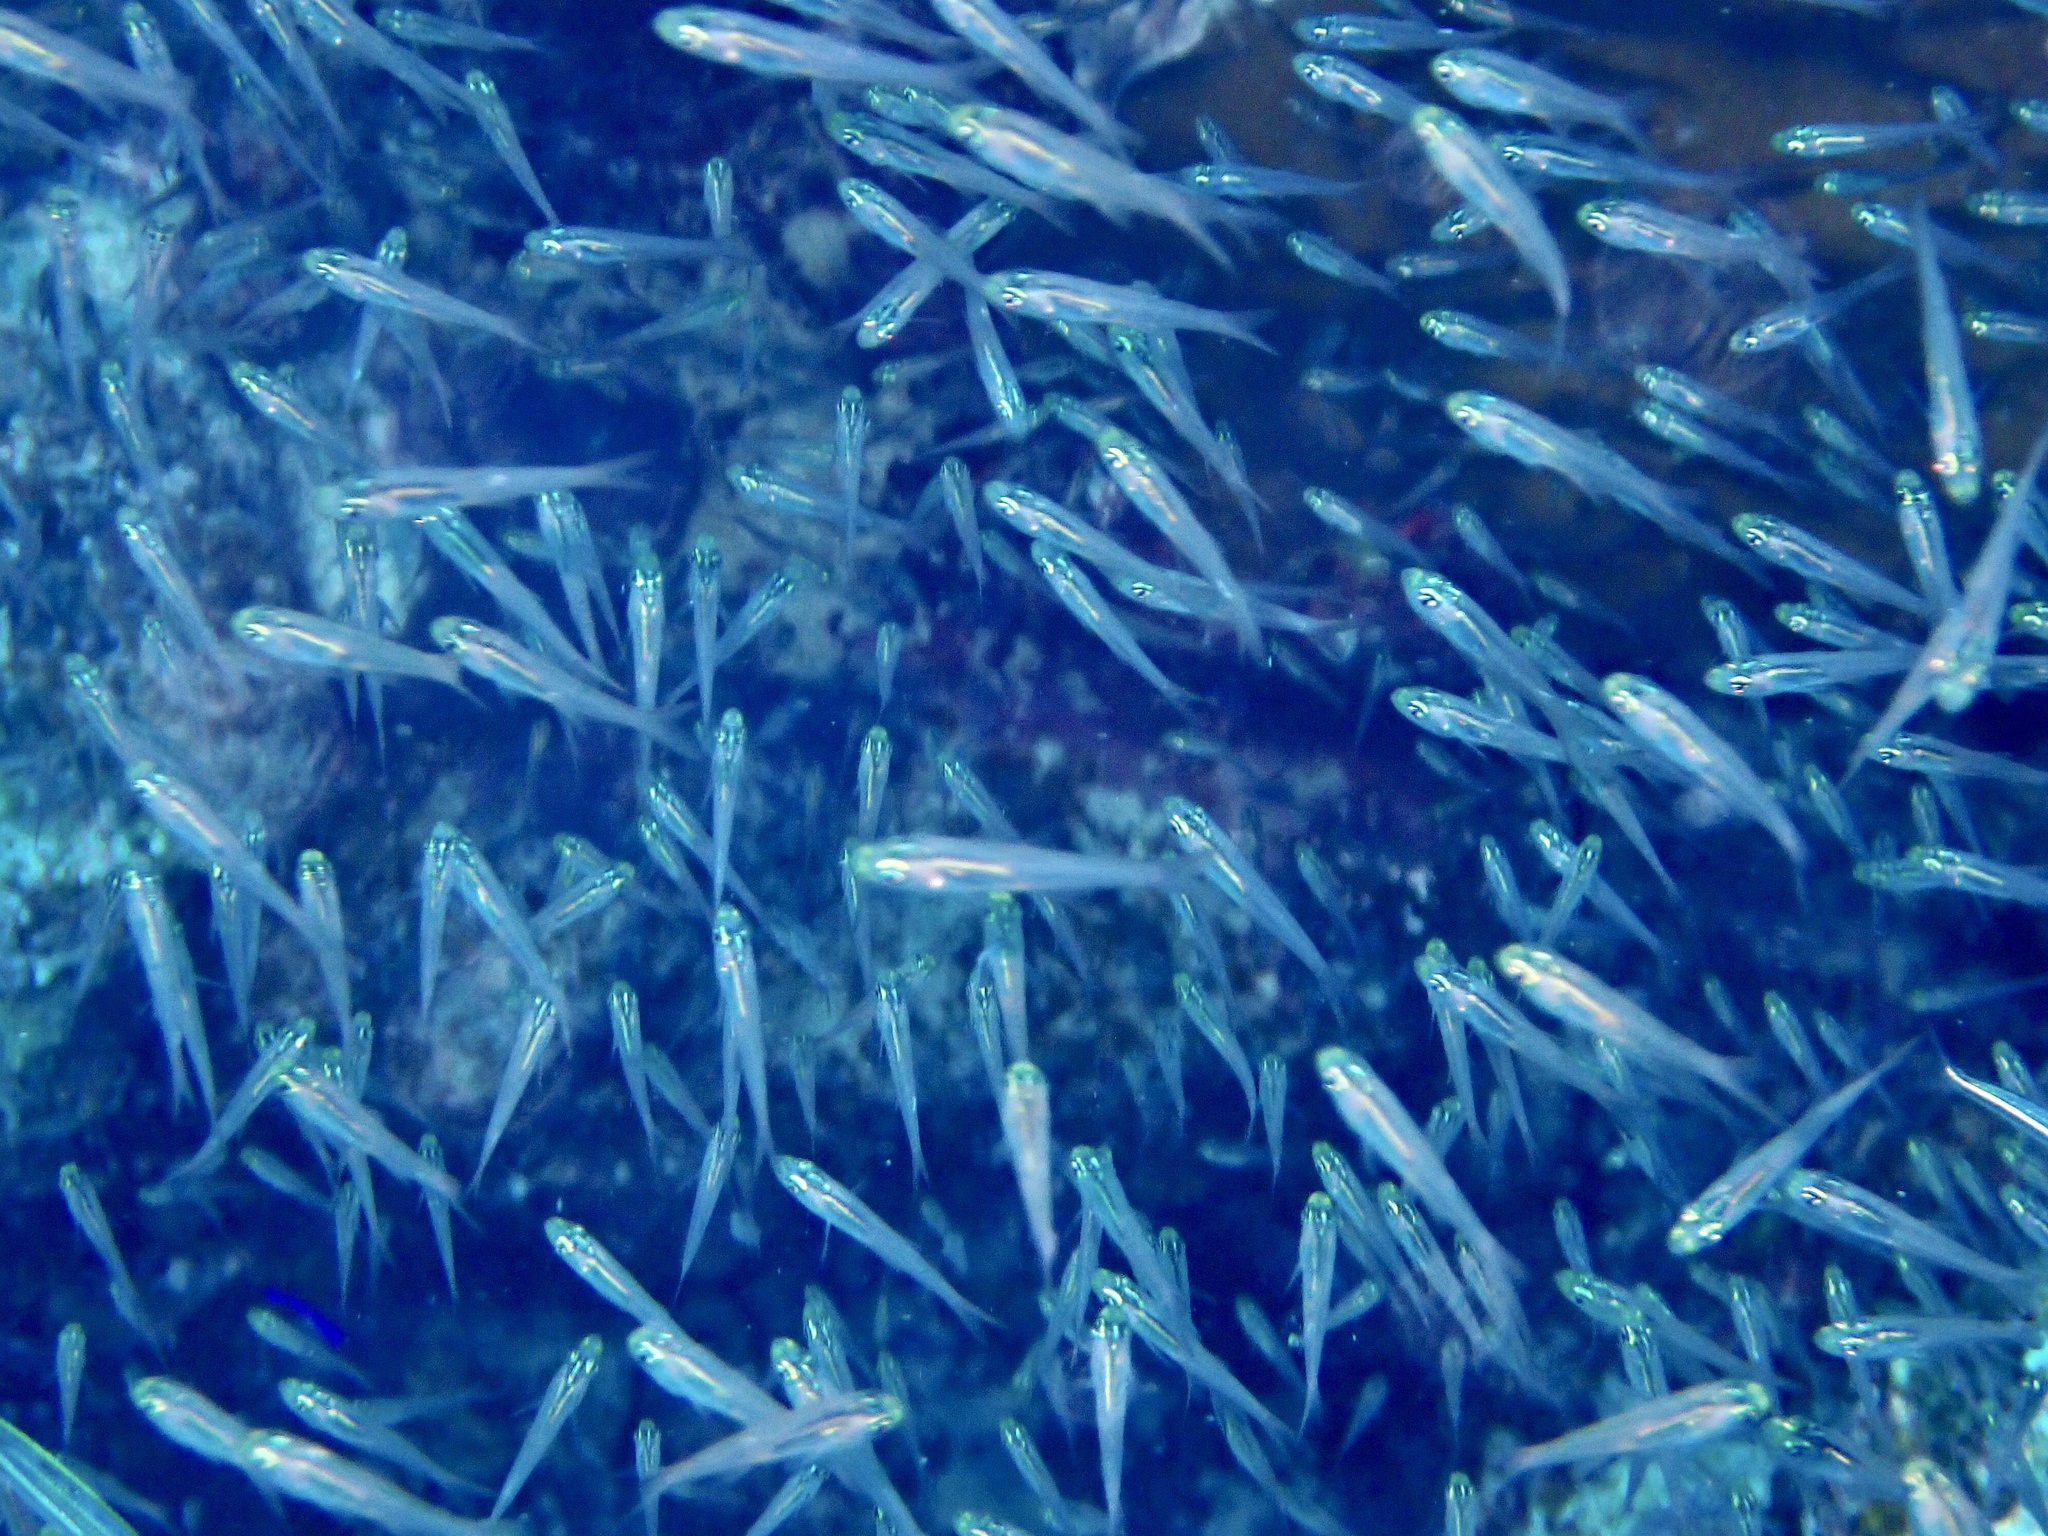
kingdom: Animalia
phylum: Chordata
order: Perciformes
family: Apogonidae
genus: Verulux
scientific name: Verulux cypselurus
